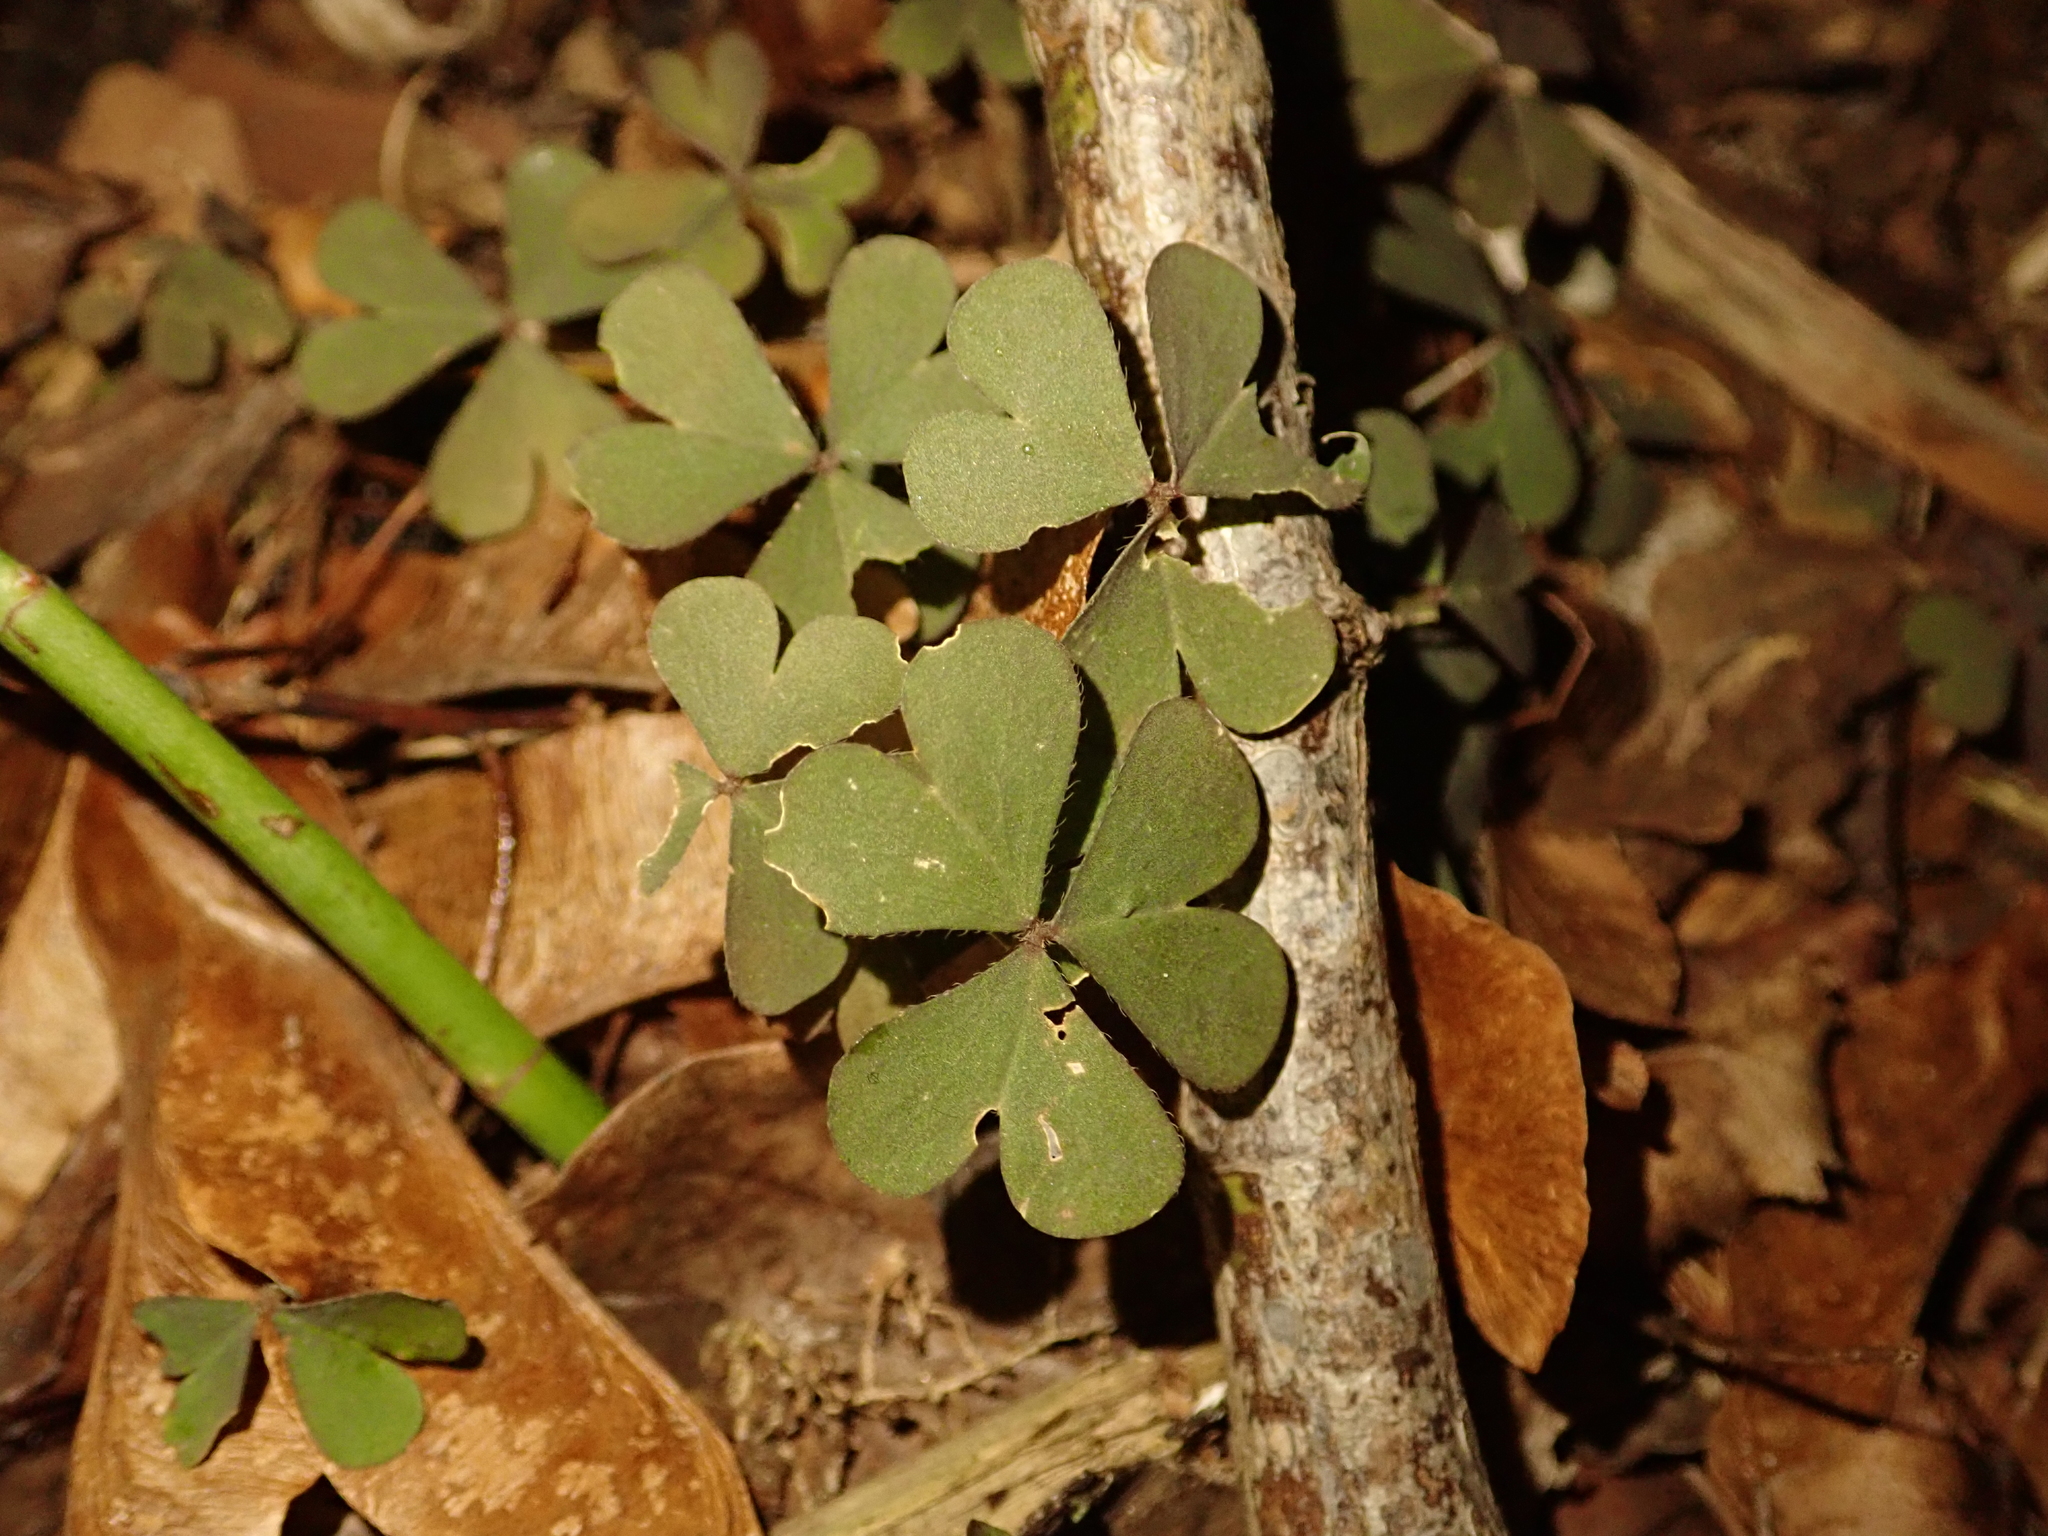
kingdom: Plantae
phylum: Tracheophyta
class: Magnoliopsida
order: Oxalidales
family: Oxalidaceae
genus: Oxalis
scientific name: Oxalis corniculata
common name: Procumbent yellow-sorrel
